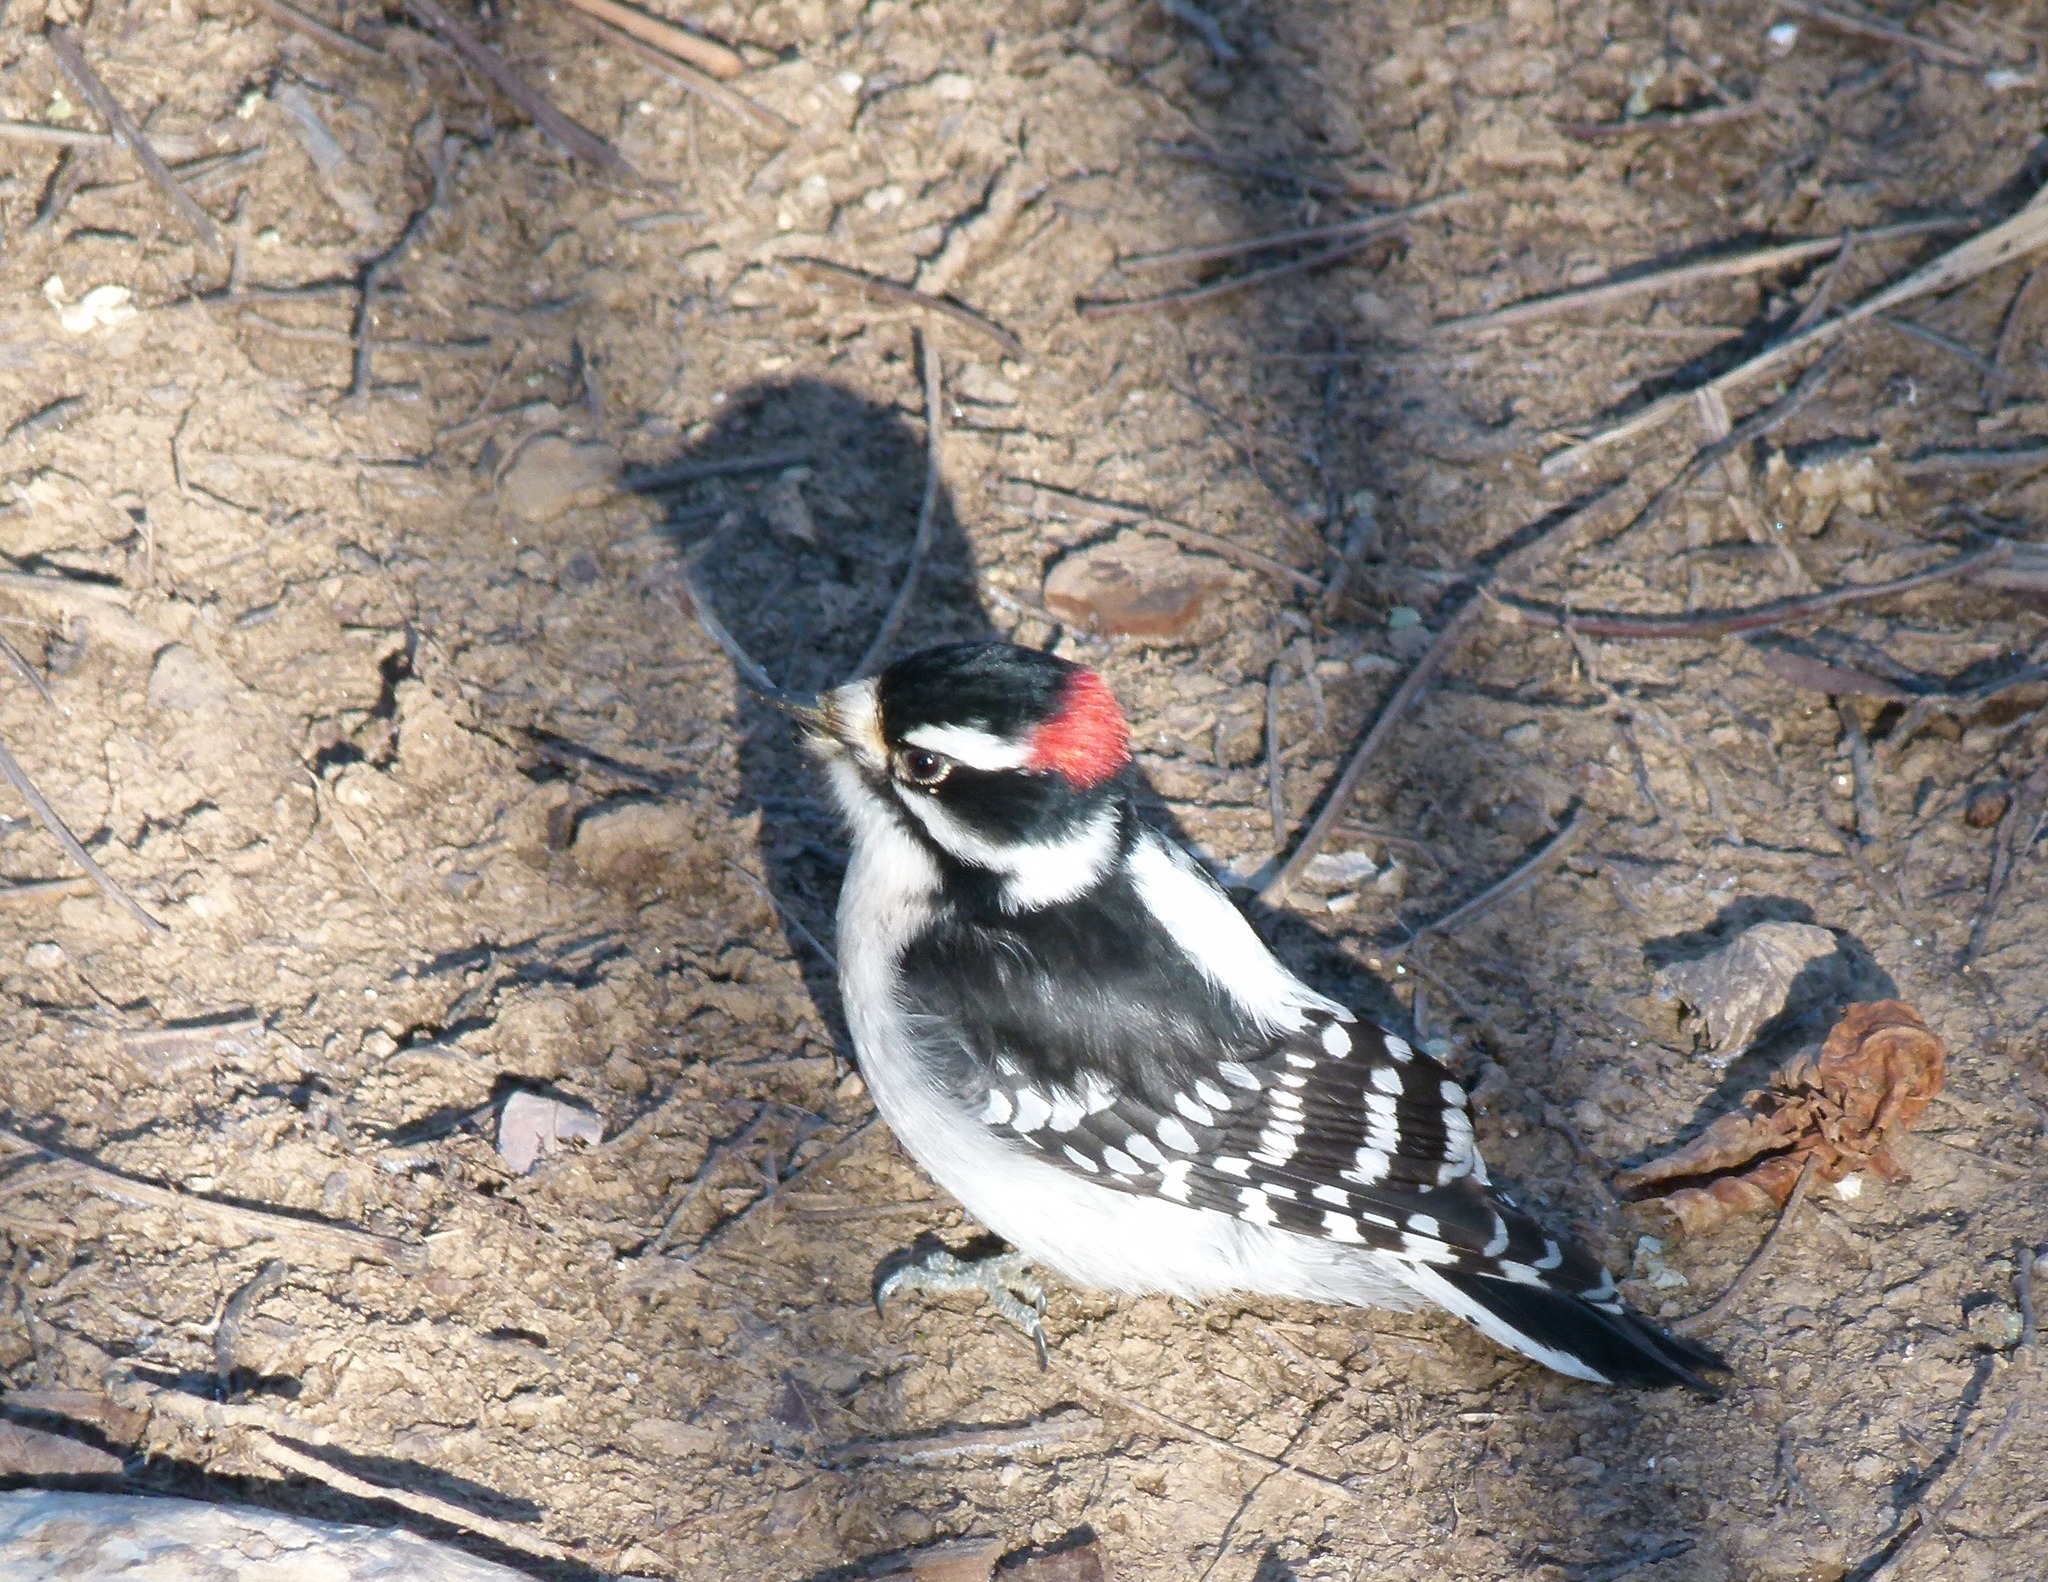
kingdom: Animalia
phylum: Chordata
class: Aves
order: Piciformes
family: Picidae
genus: Dryobates
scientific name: Dryobates pubescens
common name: Downy woodpecker
